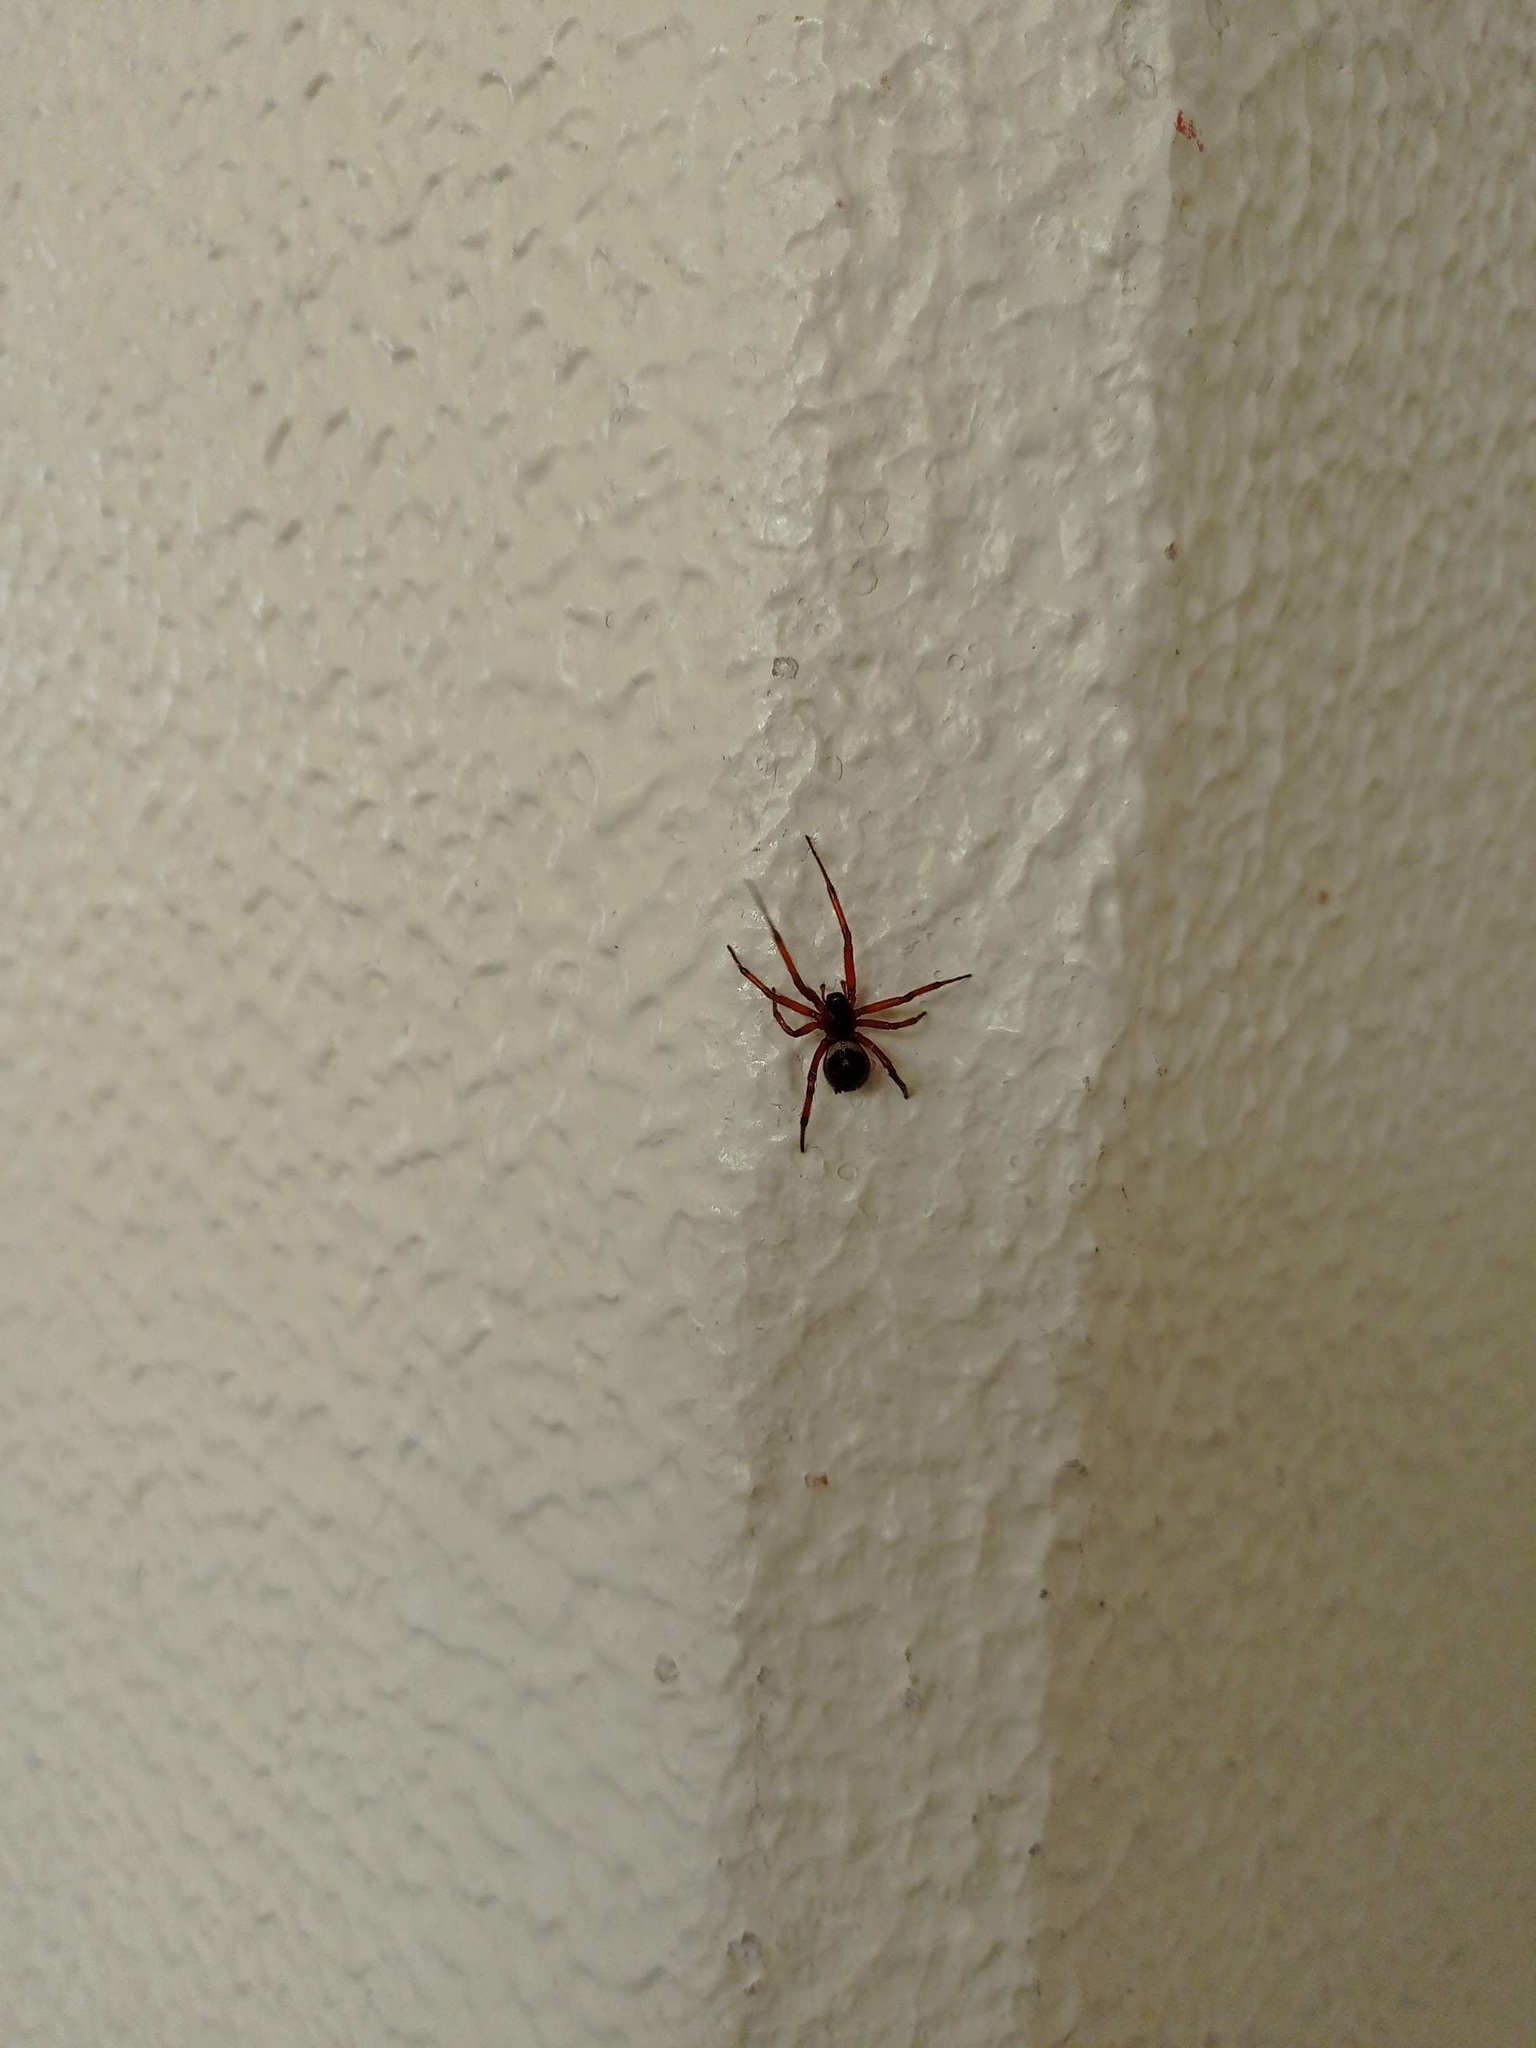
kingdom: Animalia
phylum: Arthropoda
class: Arachnida
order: Araneae
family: Theridiidae
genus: Steatoda
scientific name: Steatoda nobilis
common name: Cobweb weaver
